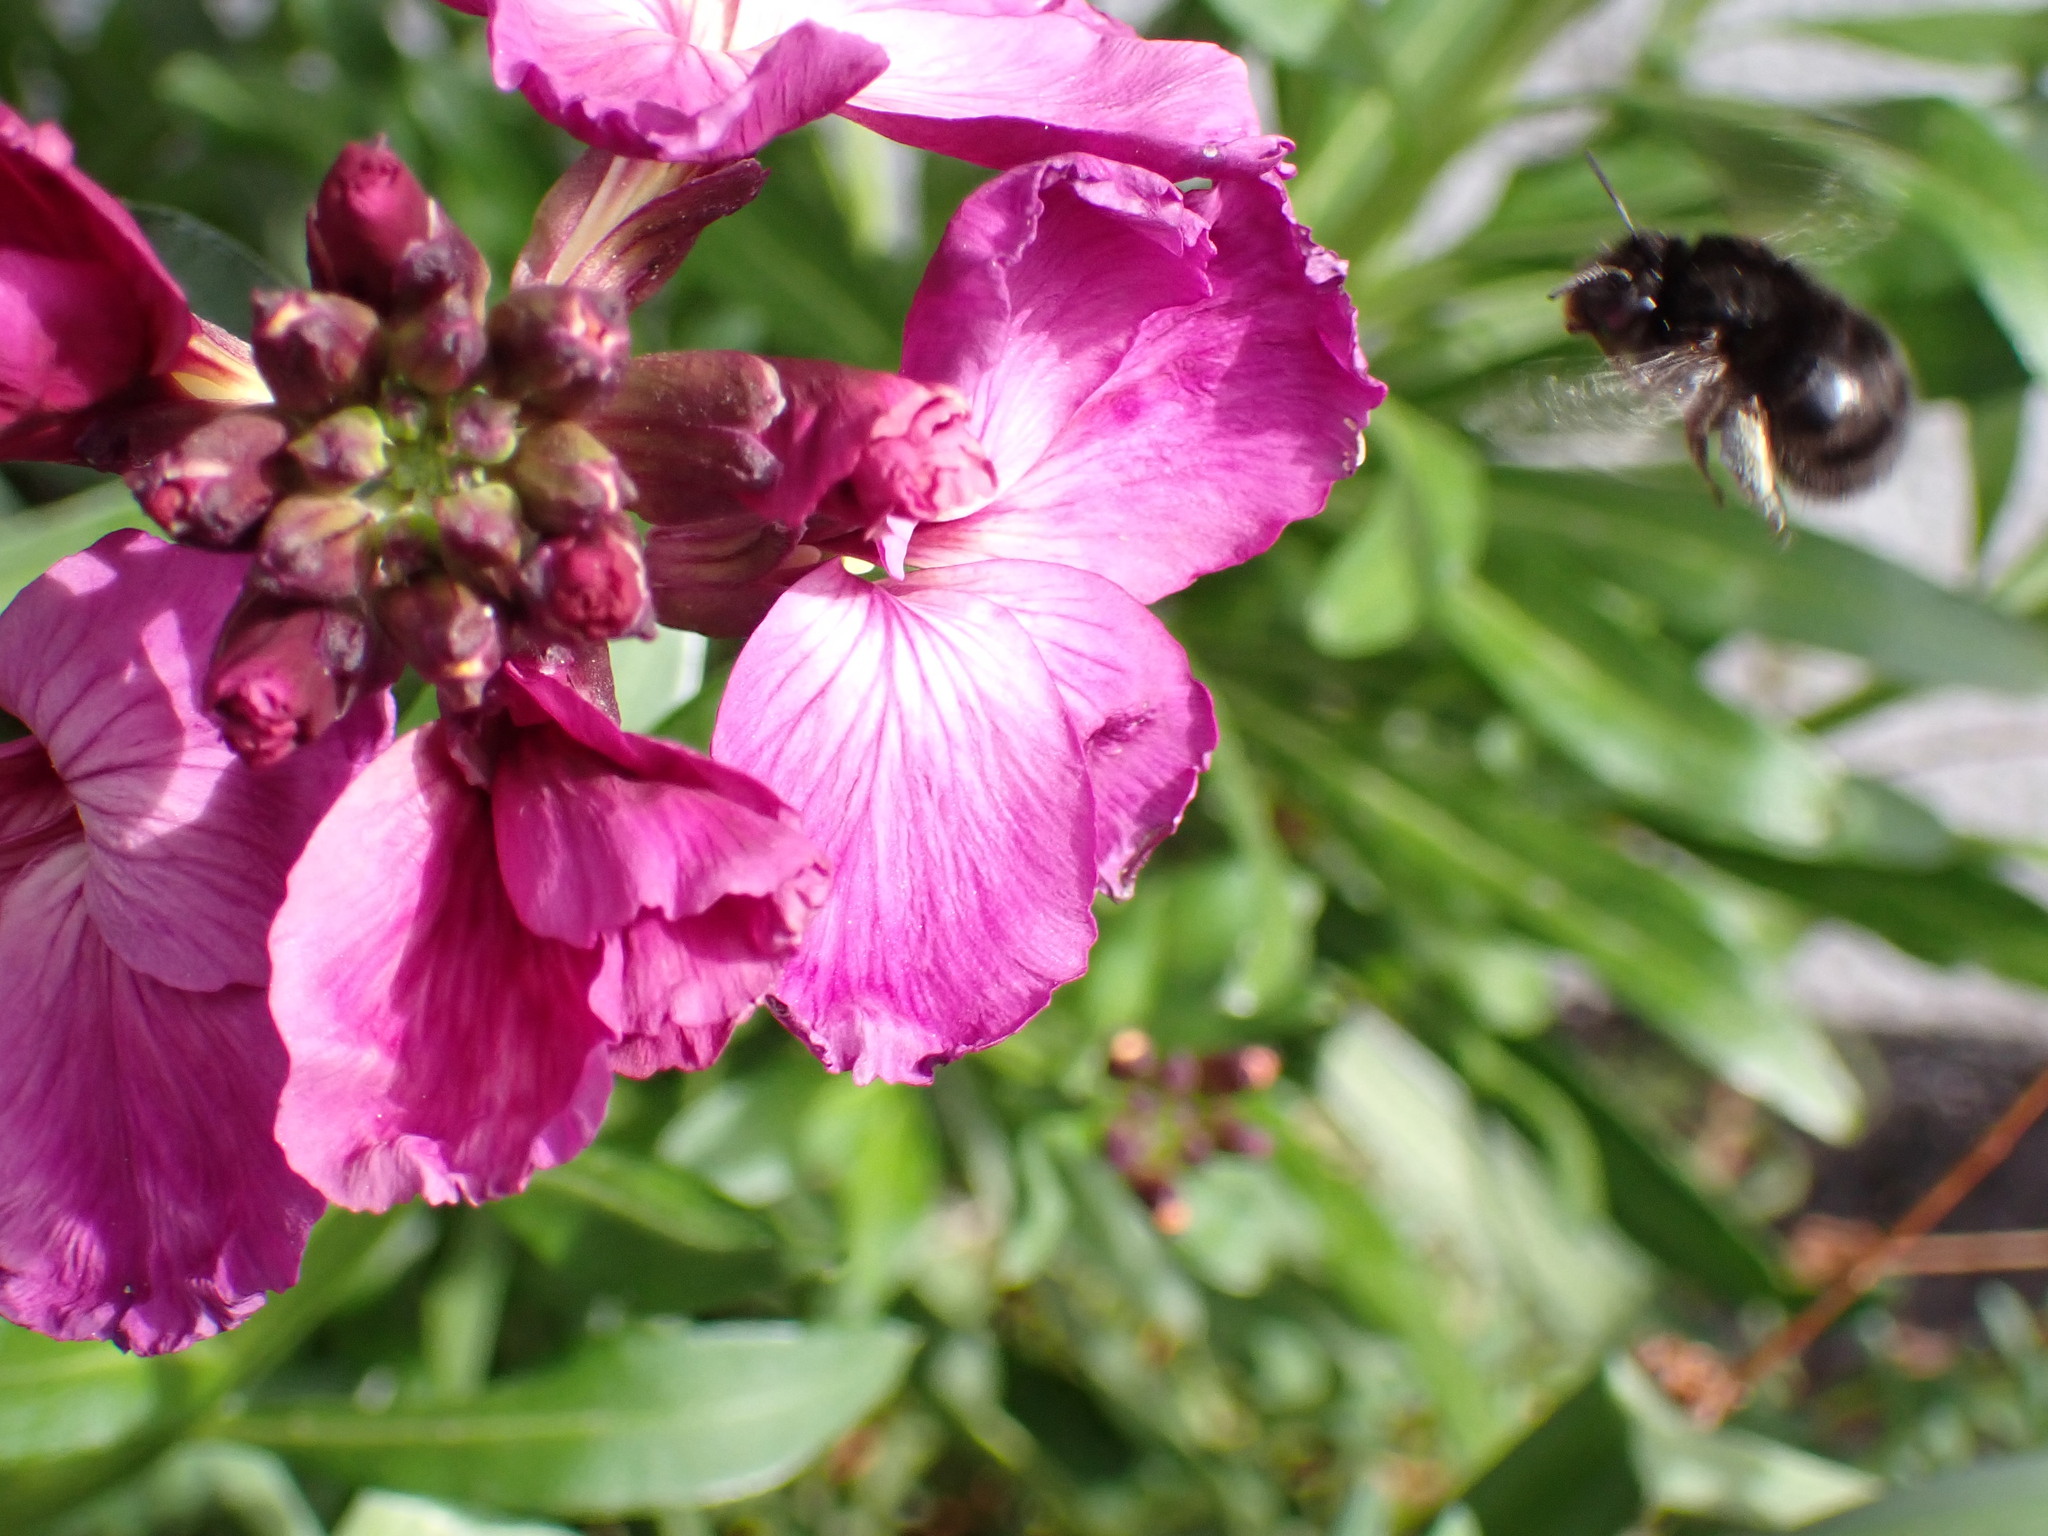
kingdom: Animalia
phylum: Arthropoda
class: Insecta
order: Hymenoptera
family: Apidae
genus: Anthophora
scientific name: Anthophora plumipes
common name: Hairy-footed flower bee
